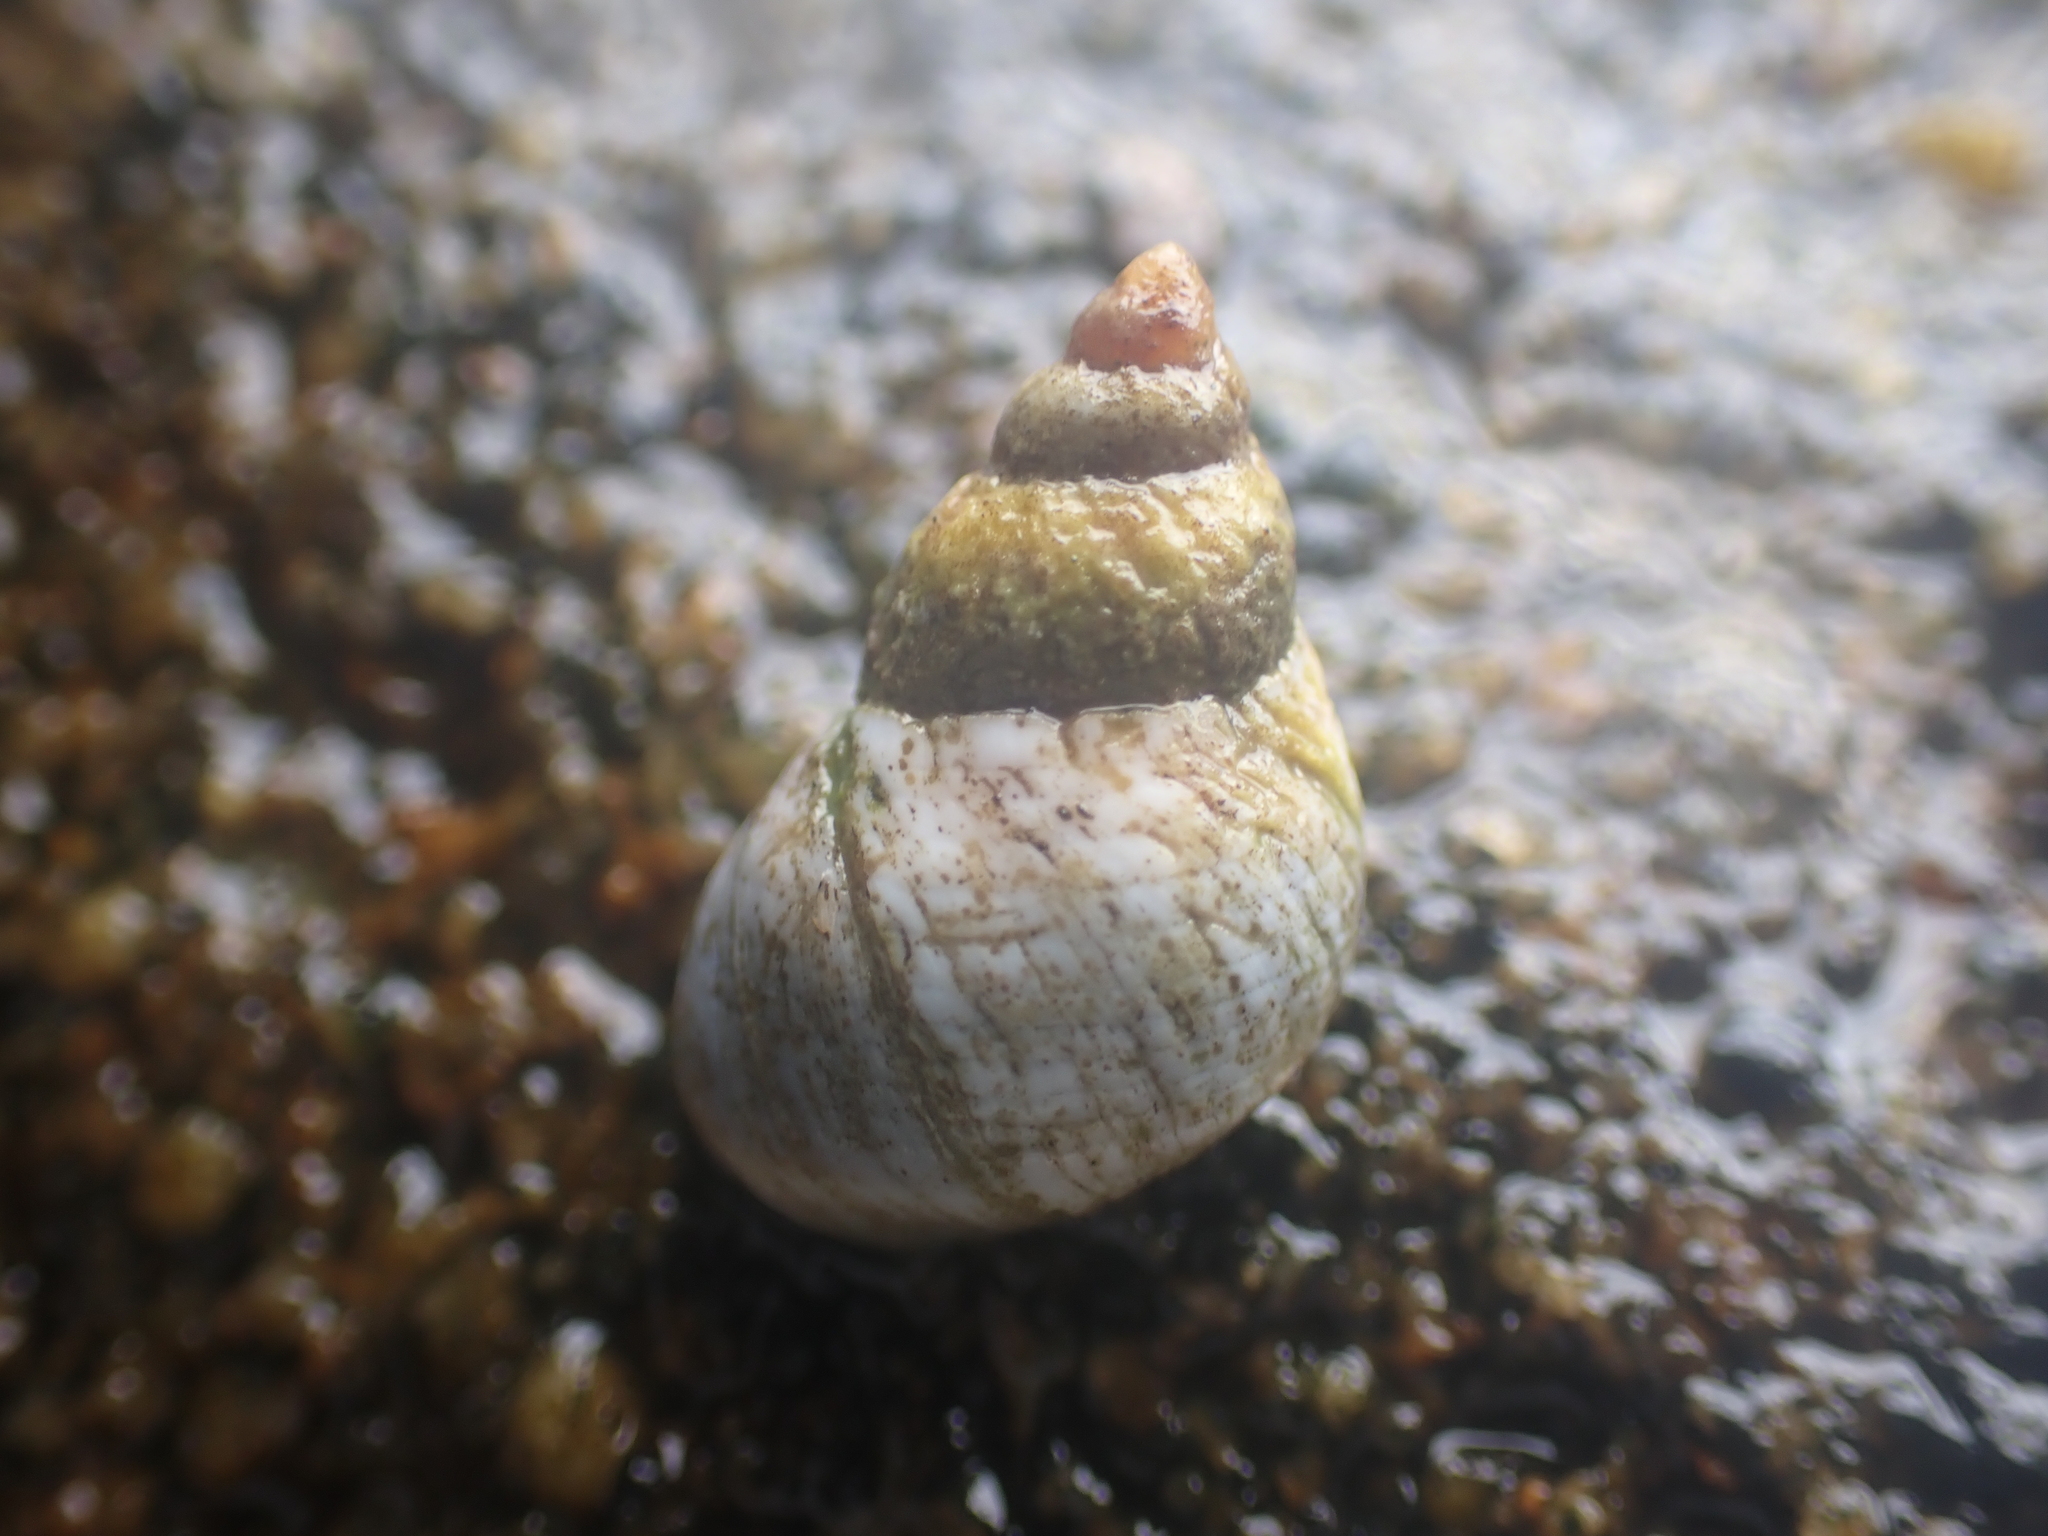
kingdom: Animalia
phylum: Mollusca
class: Gastropoda
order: Littorinimorpha
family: Littorinidae
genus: Austrolittorina
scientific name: Austrolittorina unifasciata
